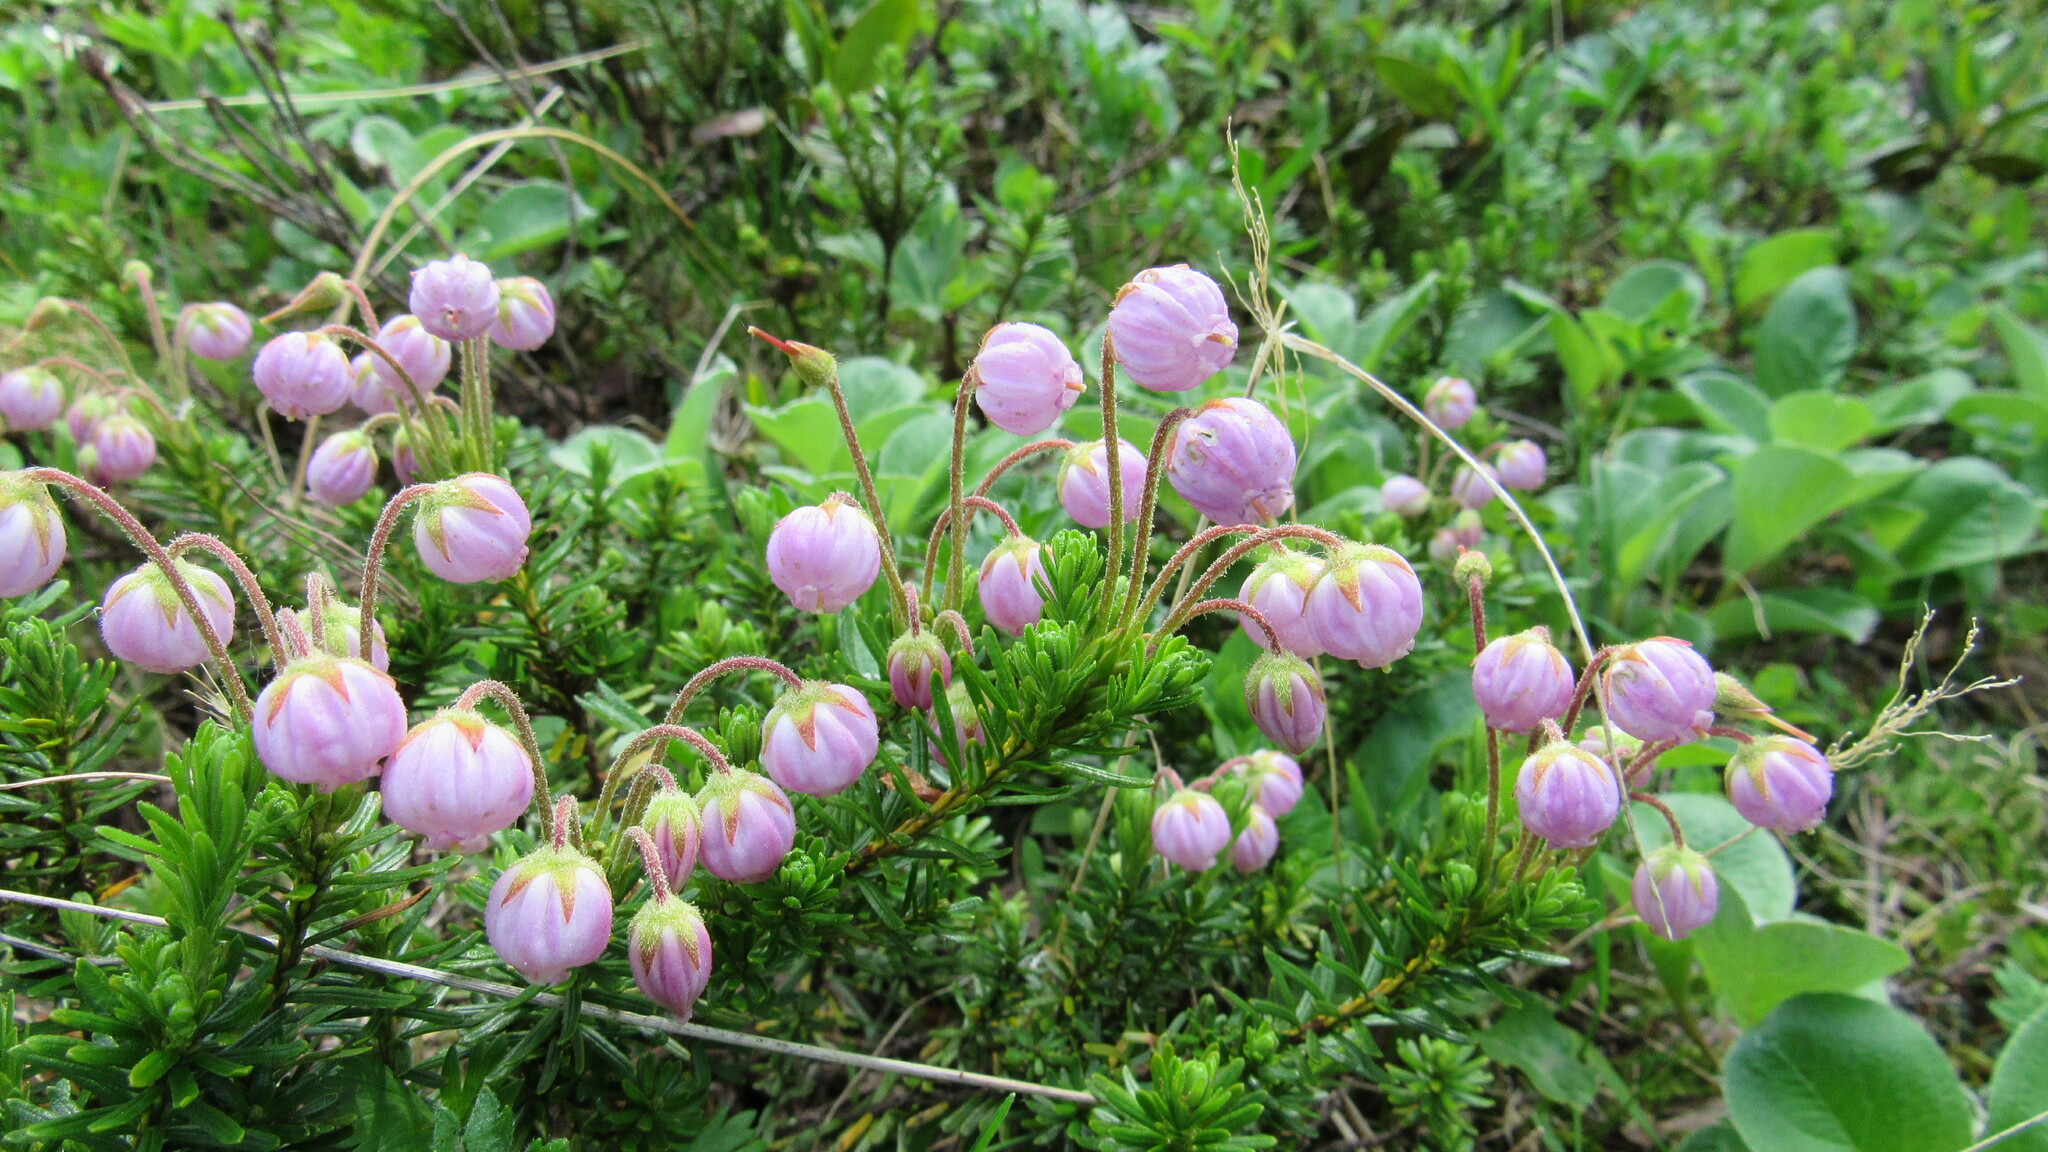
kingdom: Plantae
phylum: Tracheophyta
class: Magnoliopsida
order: Ericales
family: Ericaceae
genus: Phyllodoce
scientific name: Phyllodoce caerulea
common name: Blue heath
